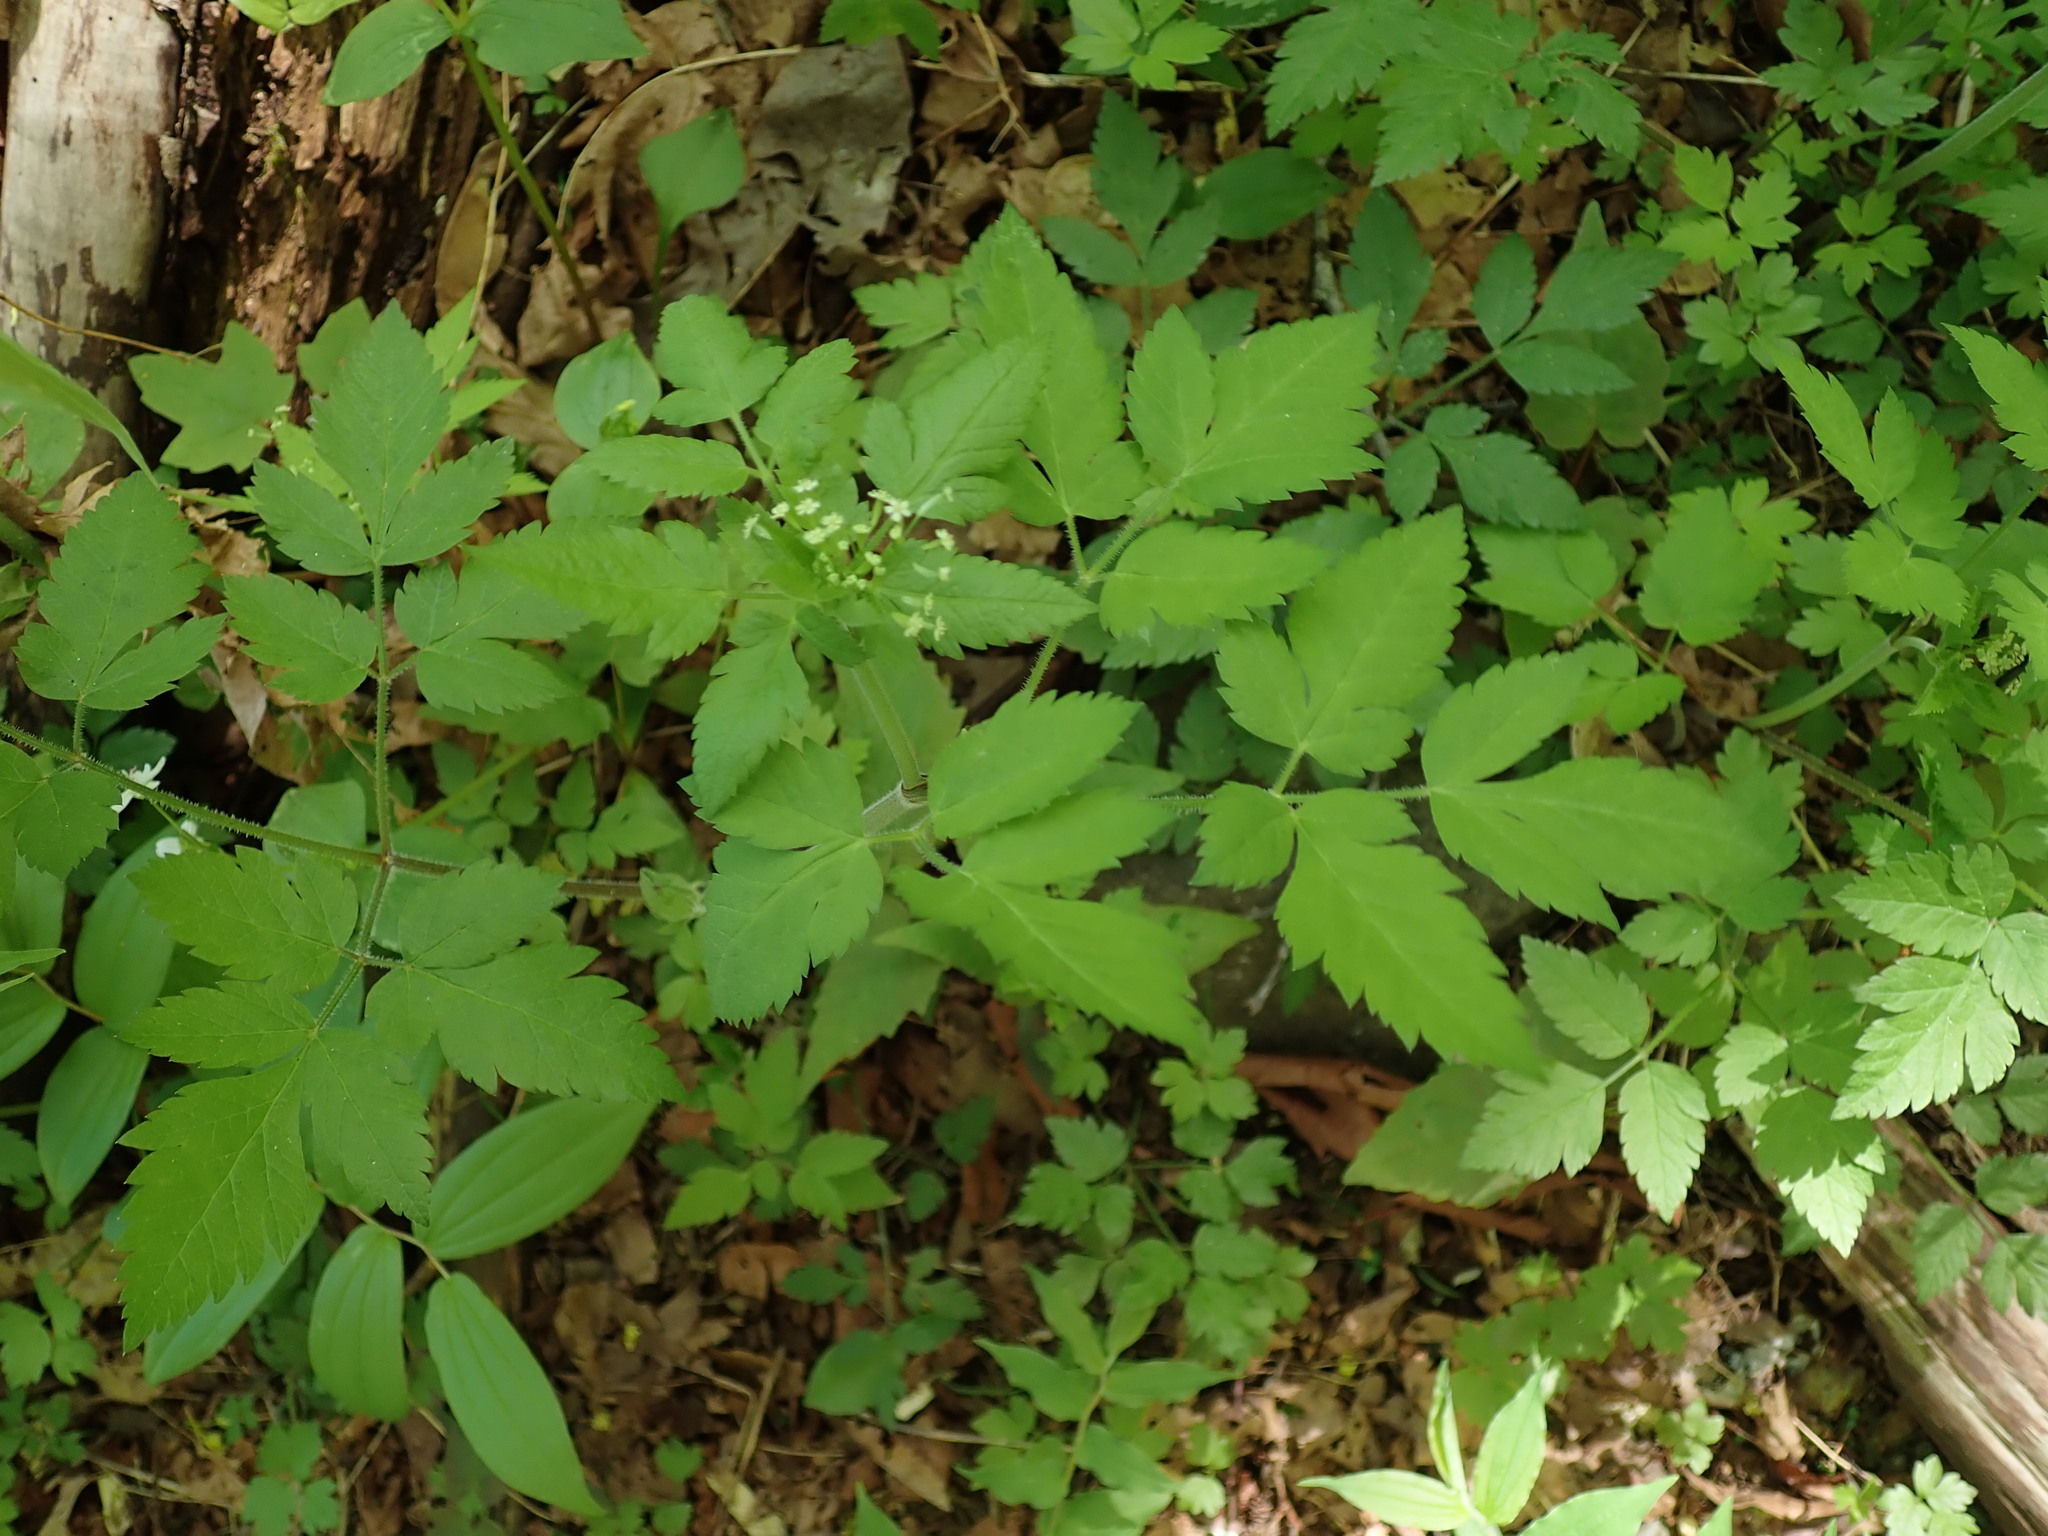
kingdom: Plantae
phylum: Tracheophyta
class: Magnoliopsida
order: Apiales
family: Apiaceae
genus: Osmorhiza
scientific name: Osmorhiza berteroi
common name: Mountain sweet cicely
